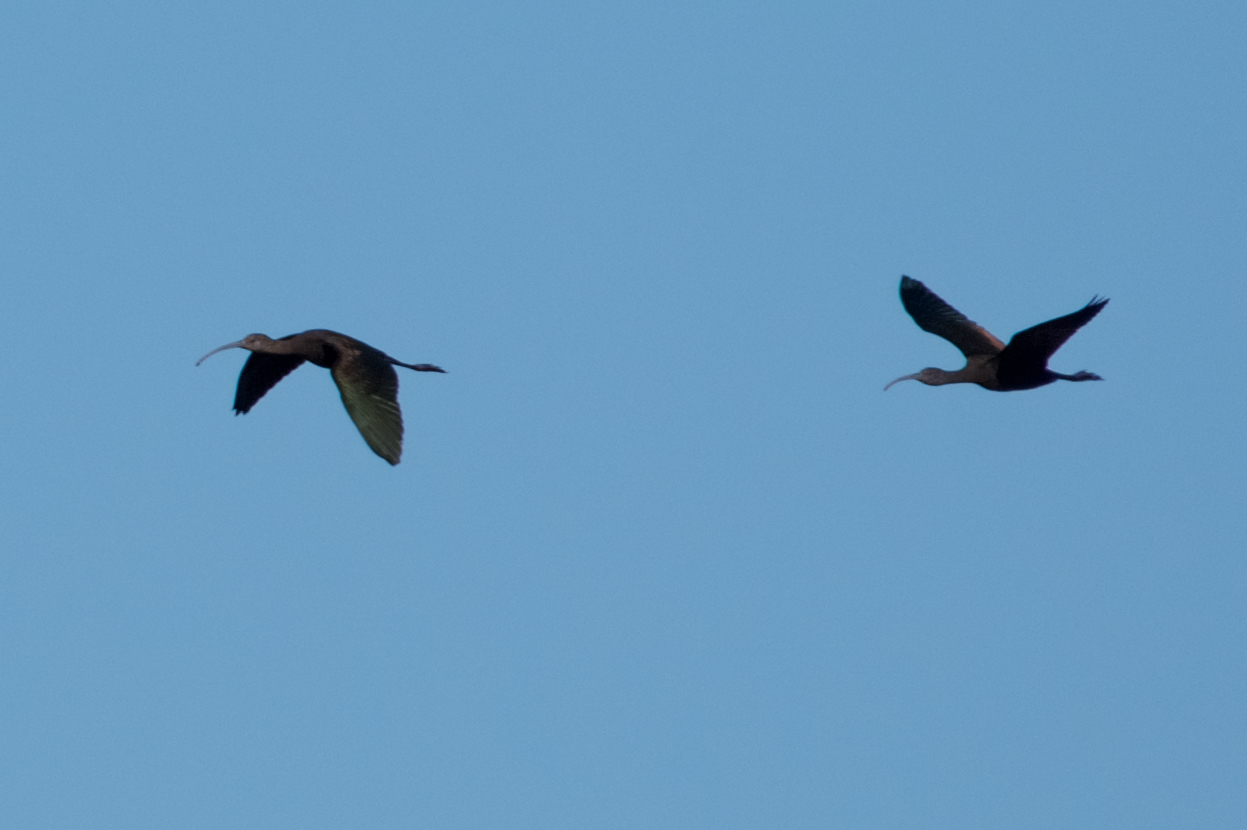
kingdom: Animalia
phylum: Chordata
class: Aves
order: Pelecaniformes
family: Threskiornithidae
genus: Plegadis
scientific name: Plegadis chihi
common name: White-faced ibis
